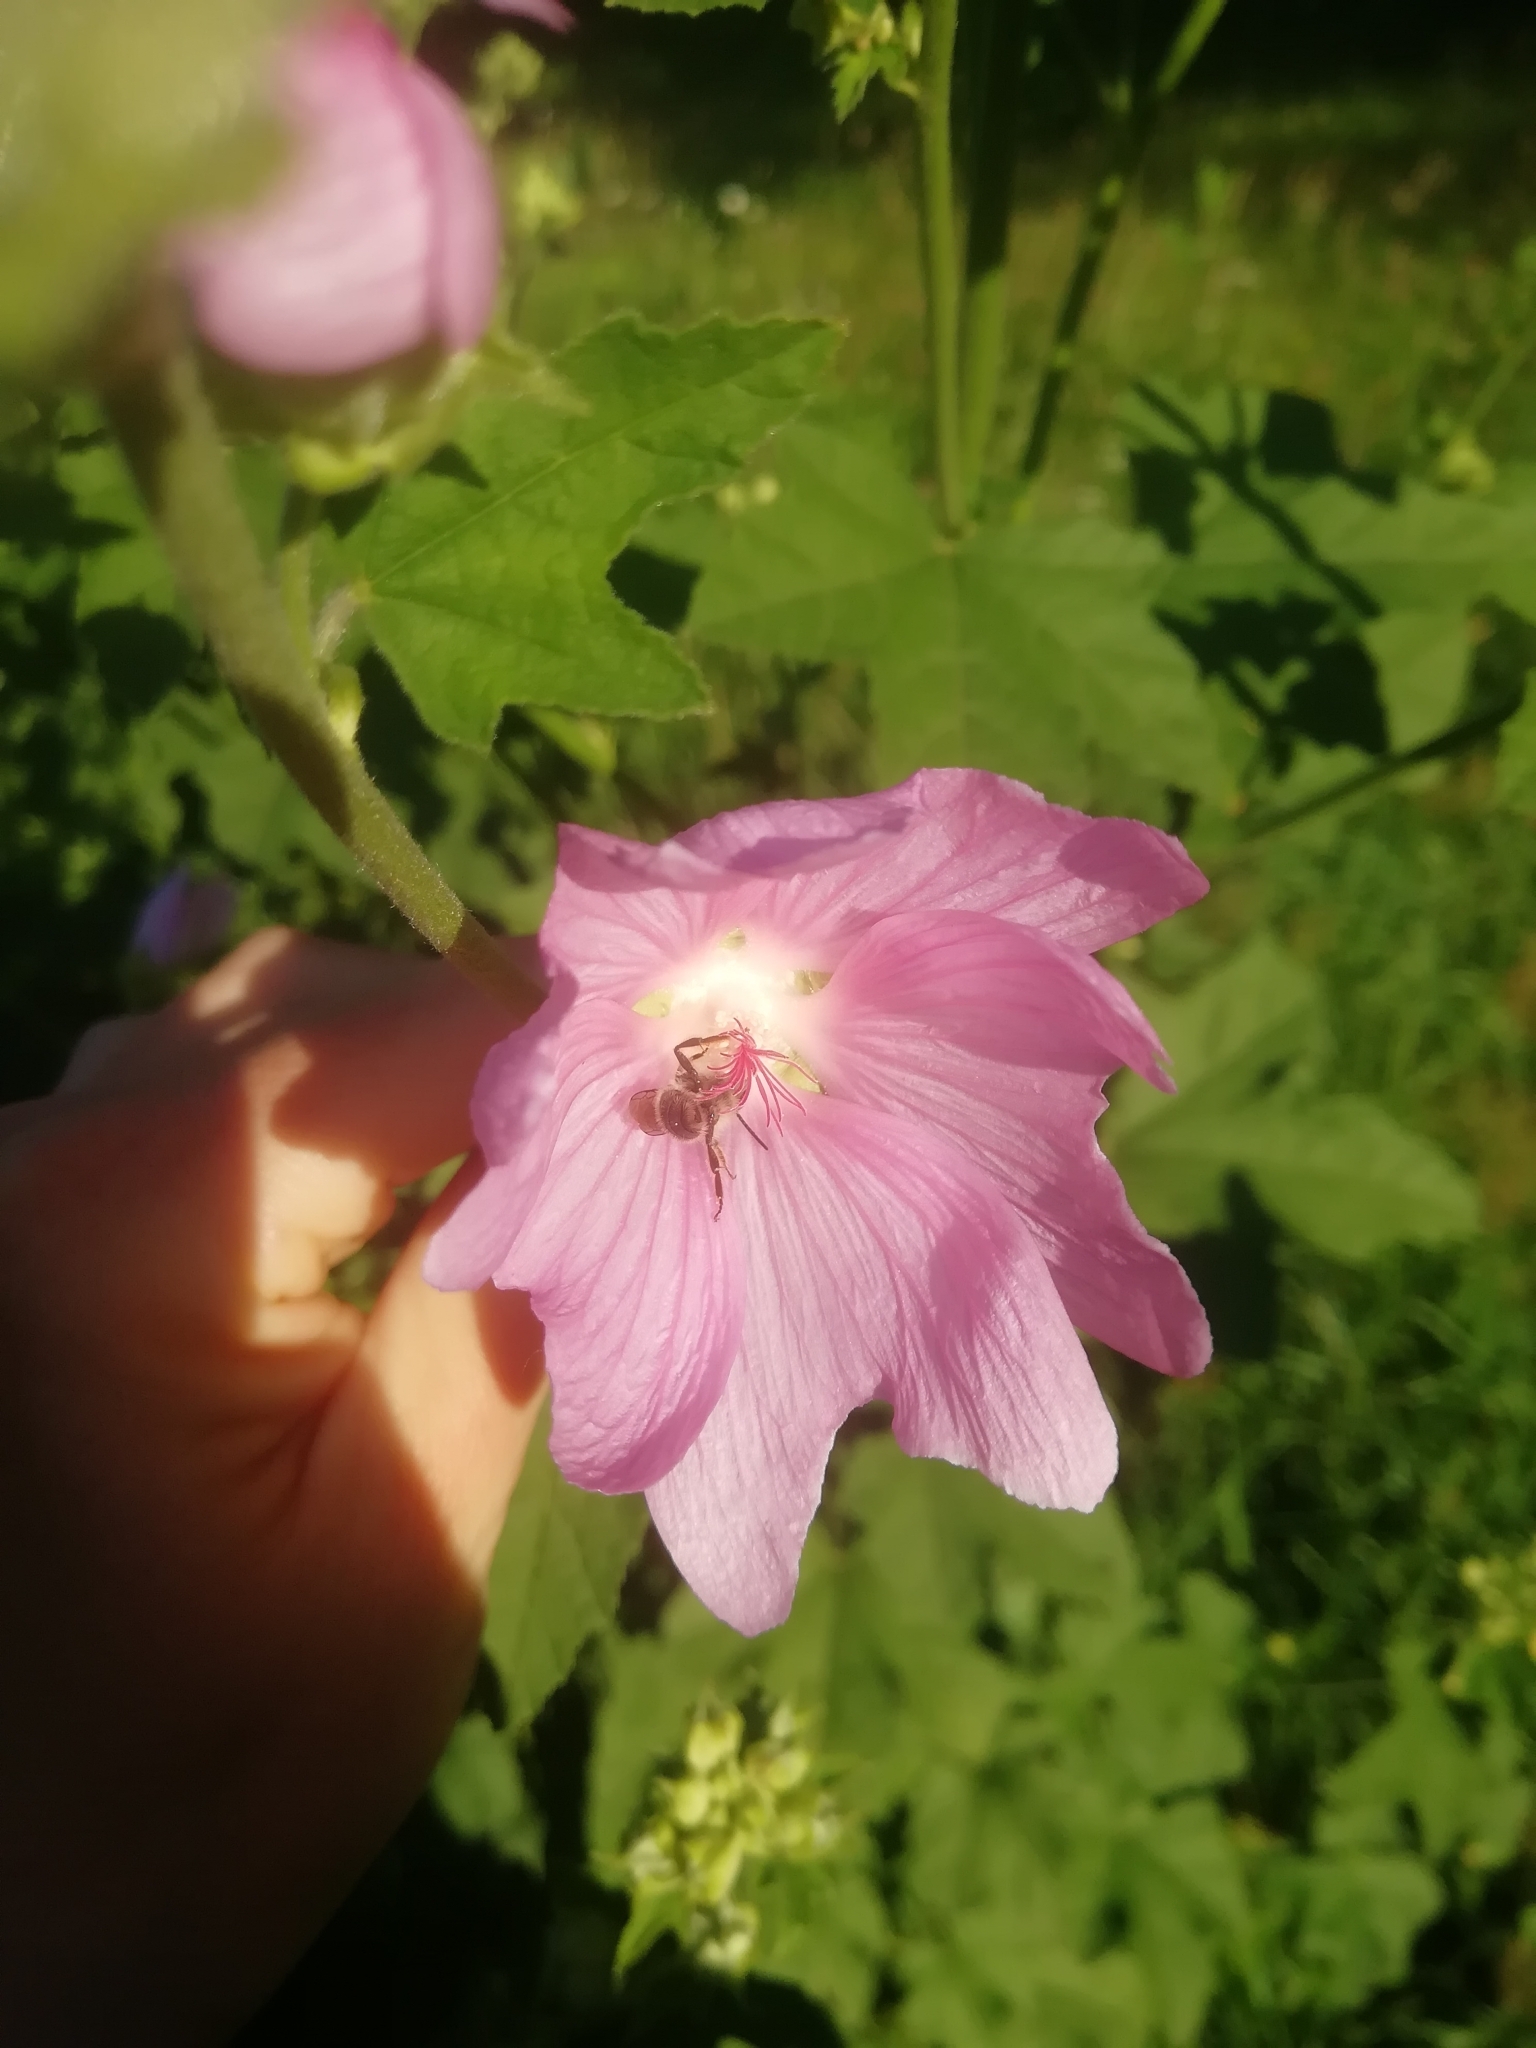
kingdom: Plantae
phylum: Tracheophyta
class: Magnoliopsida
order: Malvales
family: Malvaceae
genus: Malva
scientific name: Malva thuringiaca
